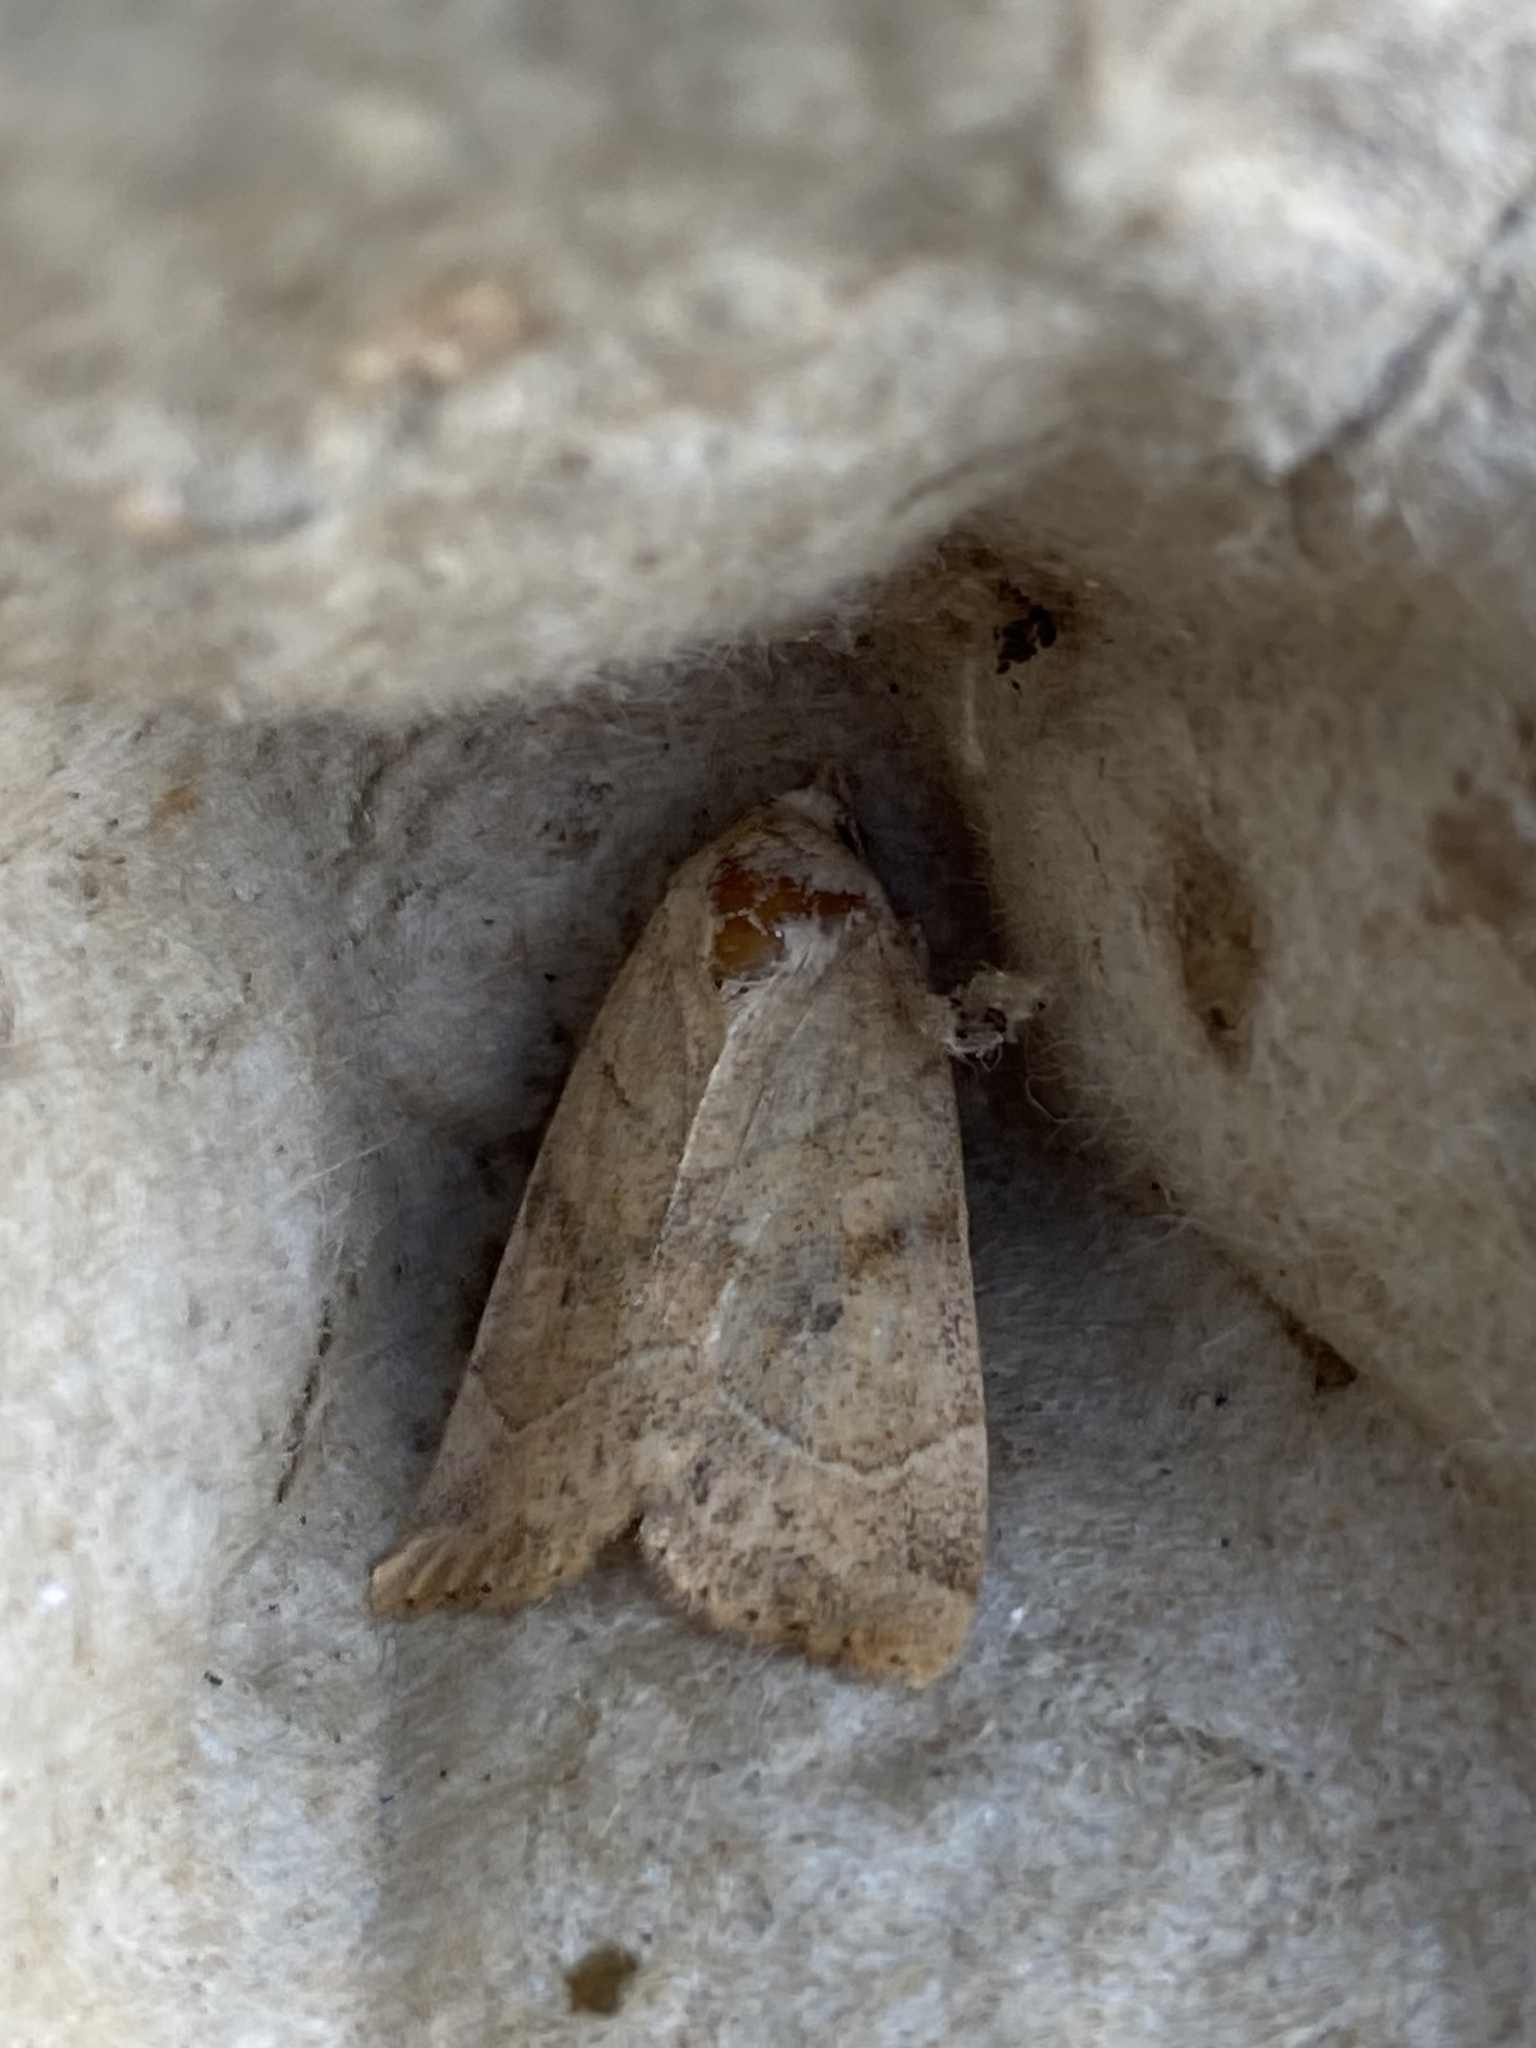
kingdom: Animalia
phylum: Arthropoda
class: Insecta
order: Lepidoptera
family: Noctuidae
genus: Cosmia
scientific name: Cosmia trapezina
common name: Dun-bar
